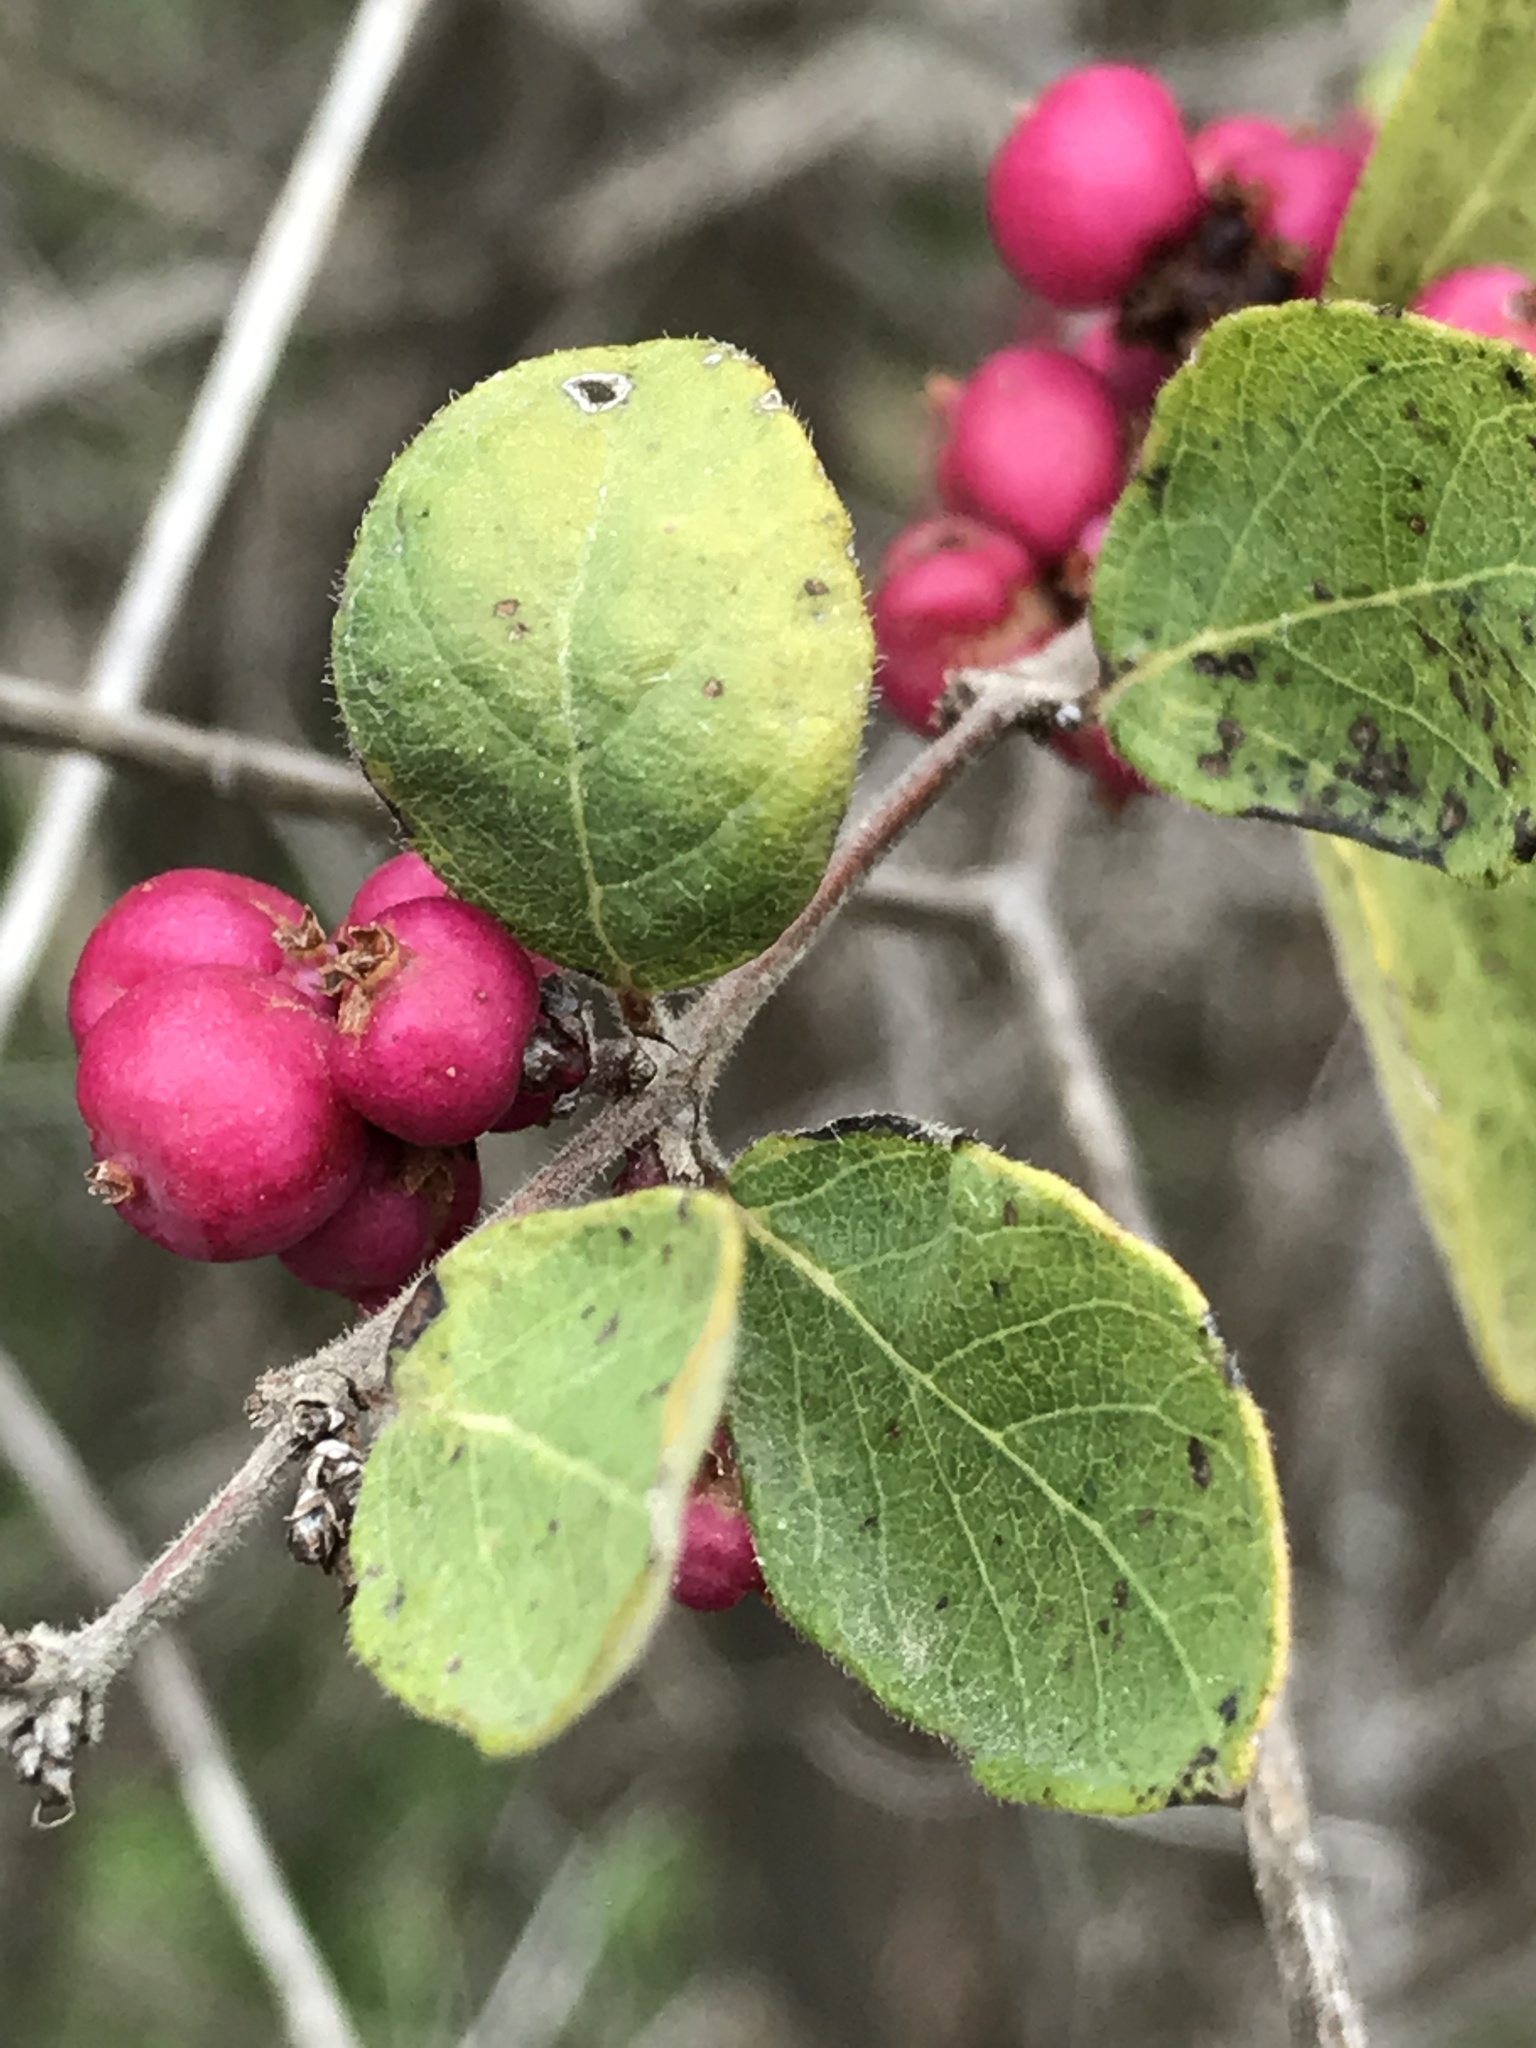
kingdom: Plantae
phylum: Tracheophyta
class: Magnoliopsida
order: Dipsacales
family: Caprifoliaceae
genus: Symphoricarpos
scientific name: Symphoricarpos orbiculatus
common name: Coralberry
